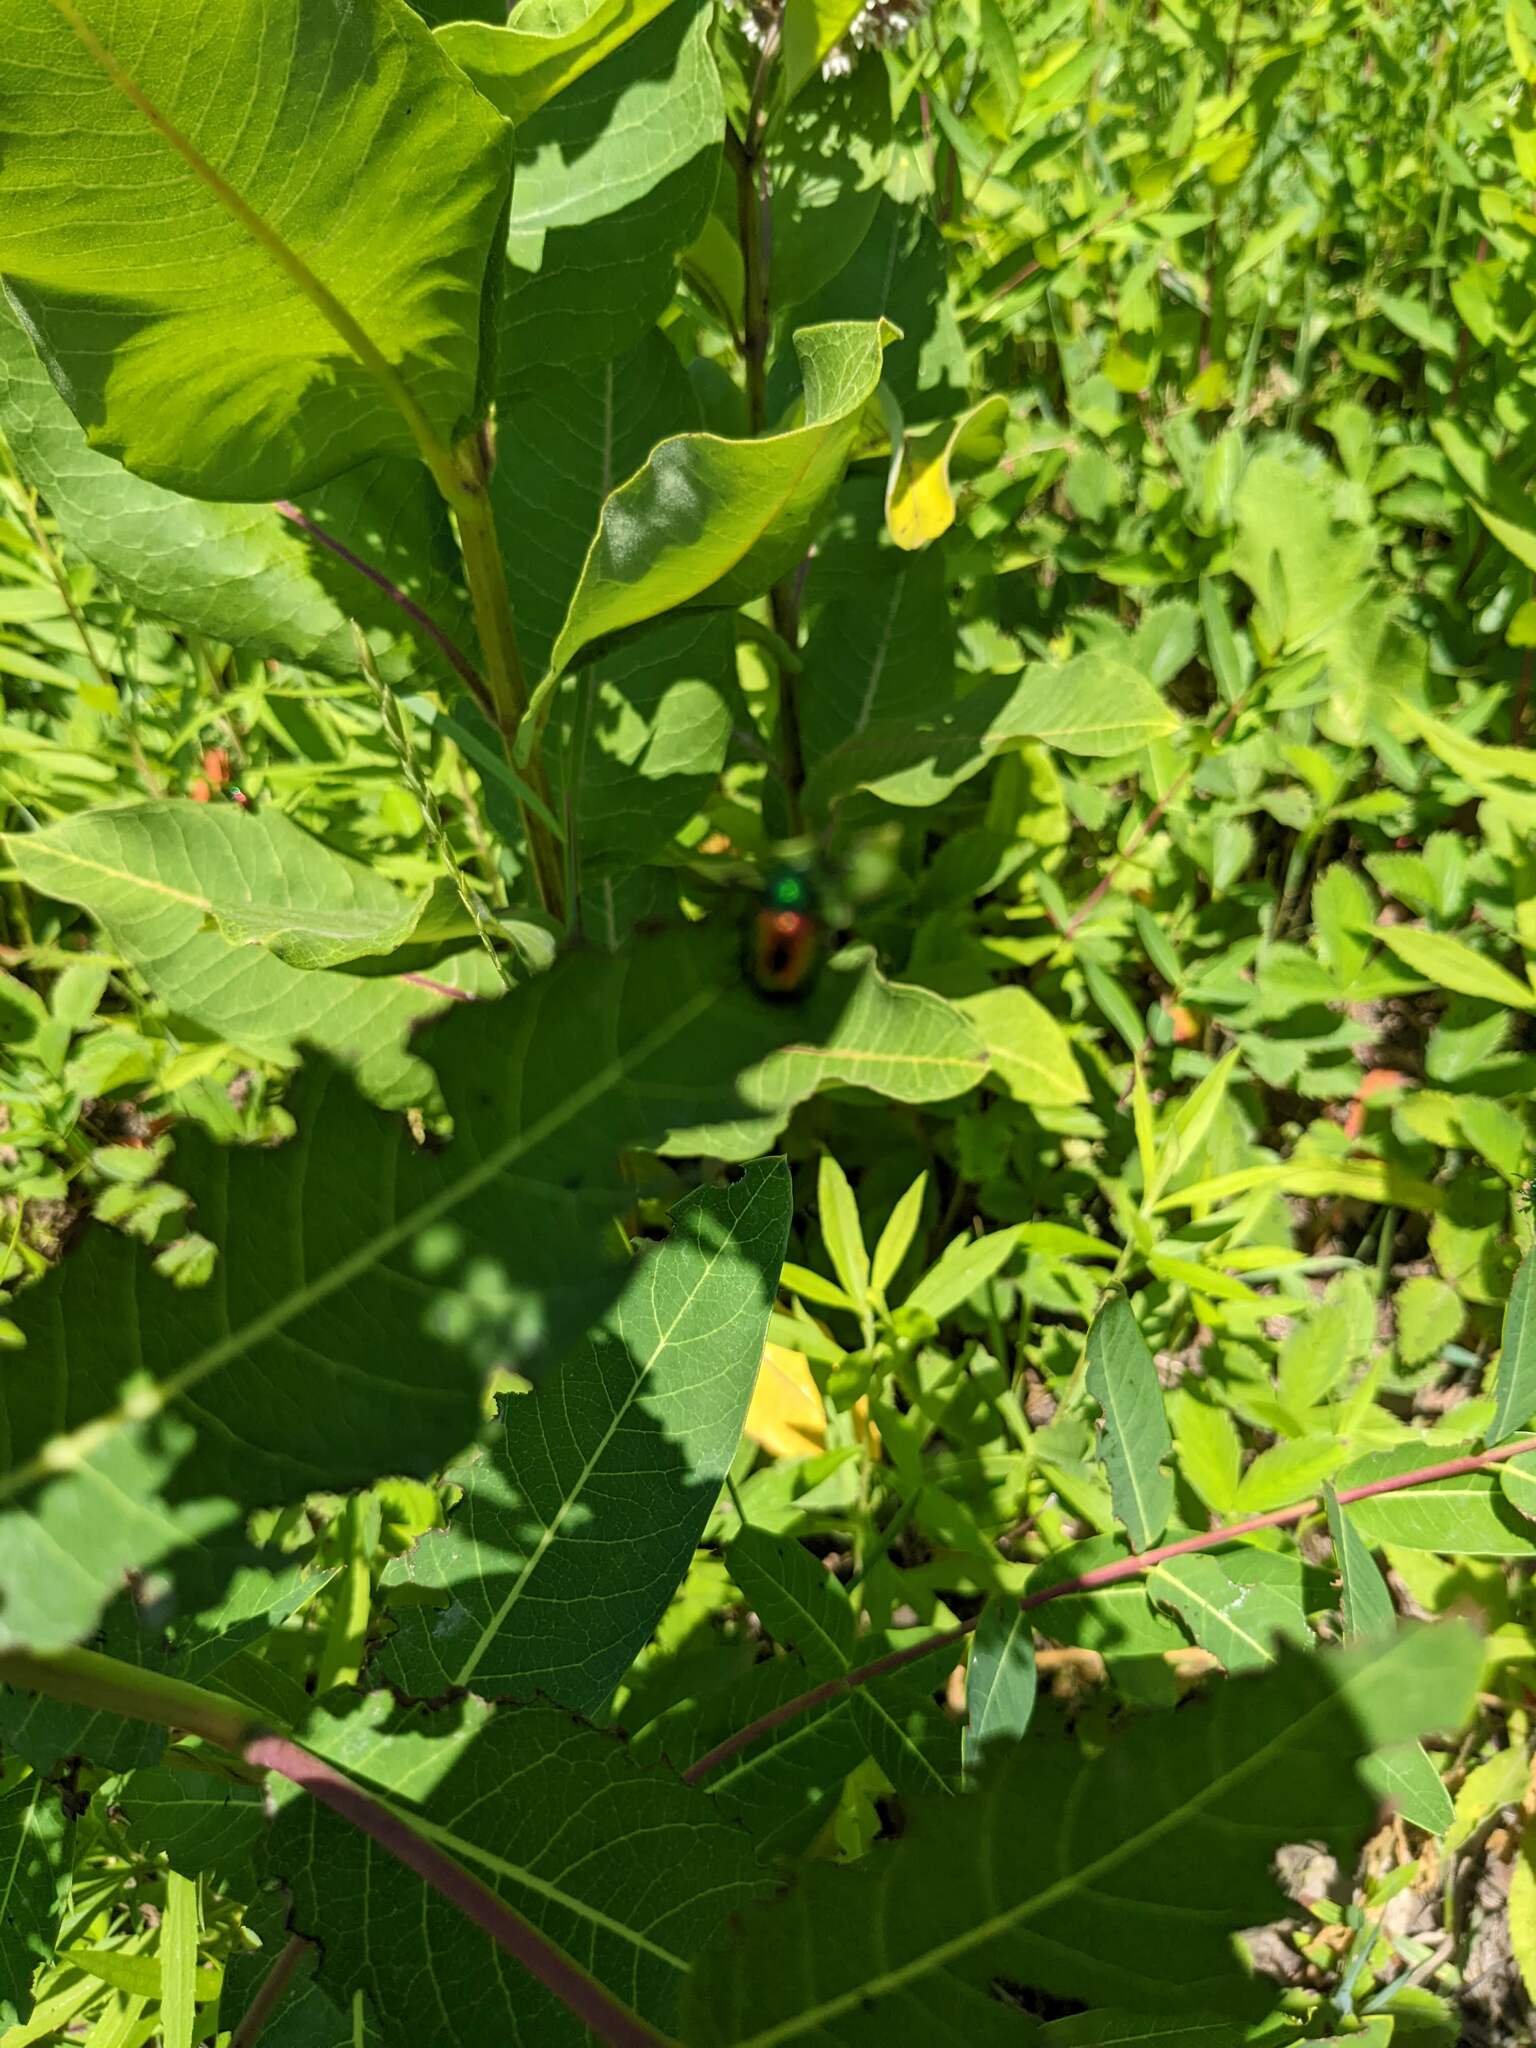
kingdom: Animalia
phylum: Arthropoda
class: Insecta
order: Coleoptera
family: Chrysomelidae
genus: Chrysochus
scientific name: Chrysochus auratus
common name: Dogbane leaf beetle
